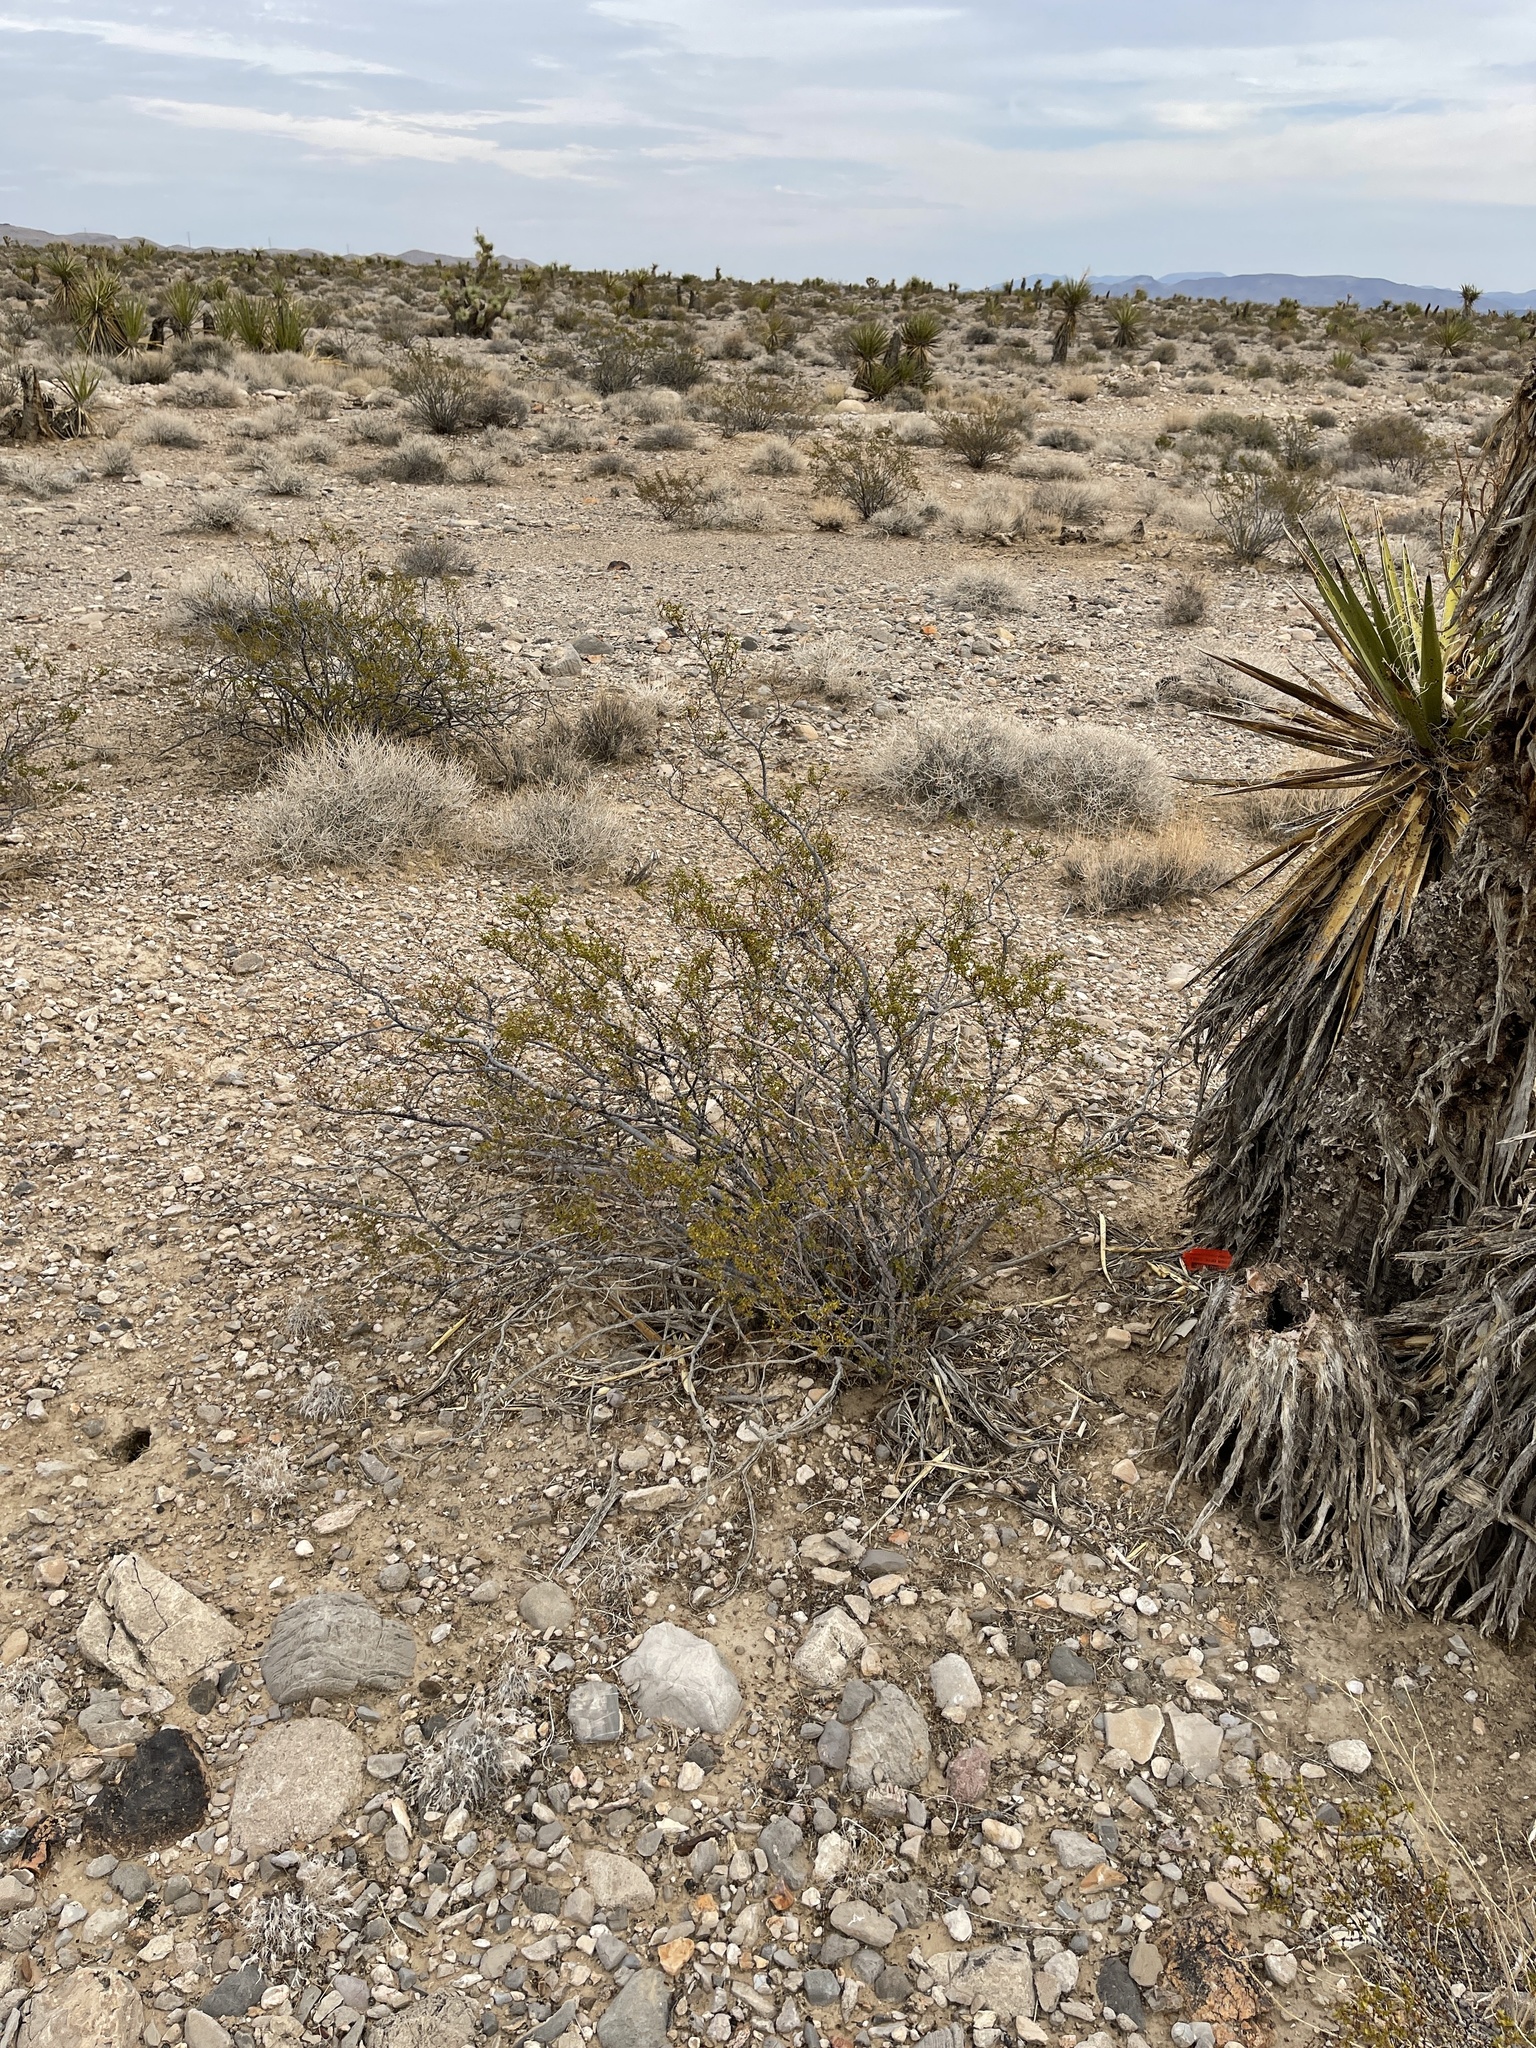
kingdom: Plantae
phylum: Tracheophyta
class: Magnoliopsida
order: Zygophyllales
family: Zygophyllaceae
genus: Larrea
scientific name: Larrea tridentata
